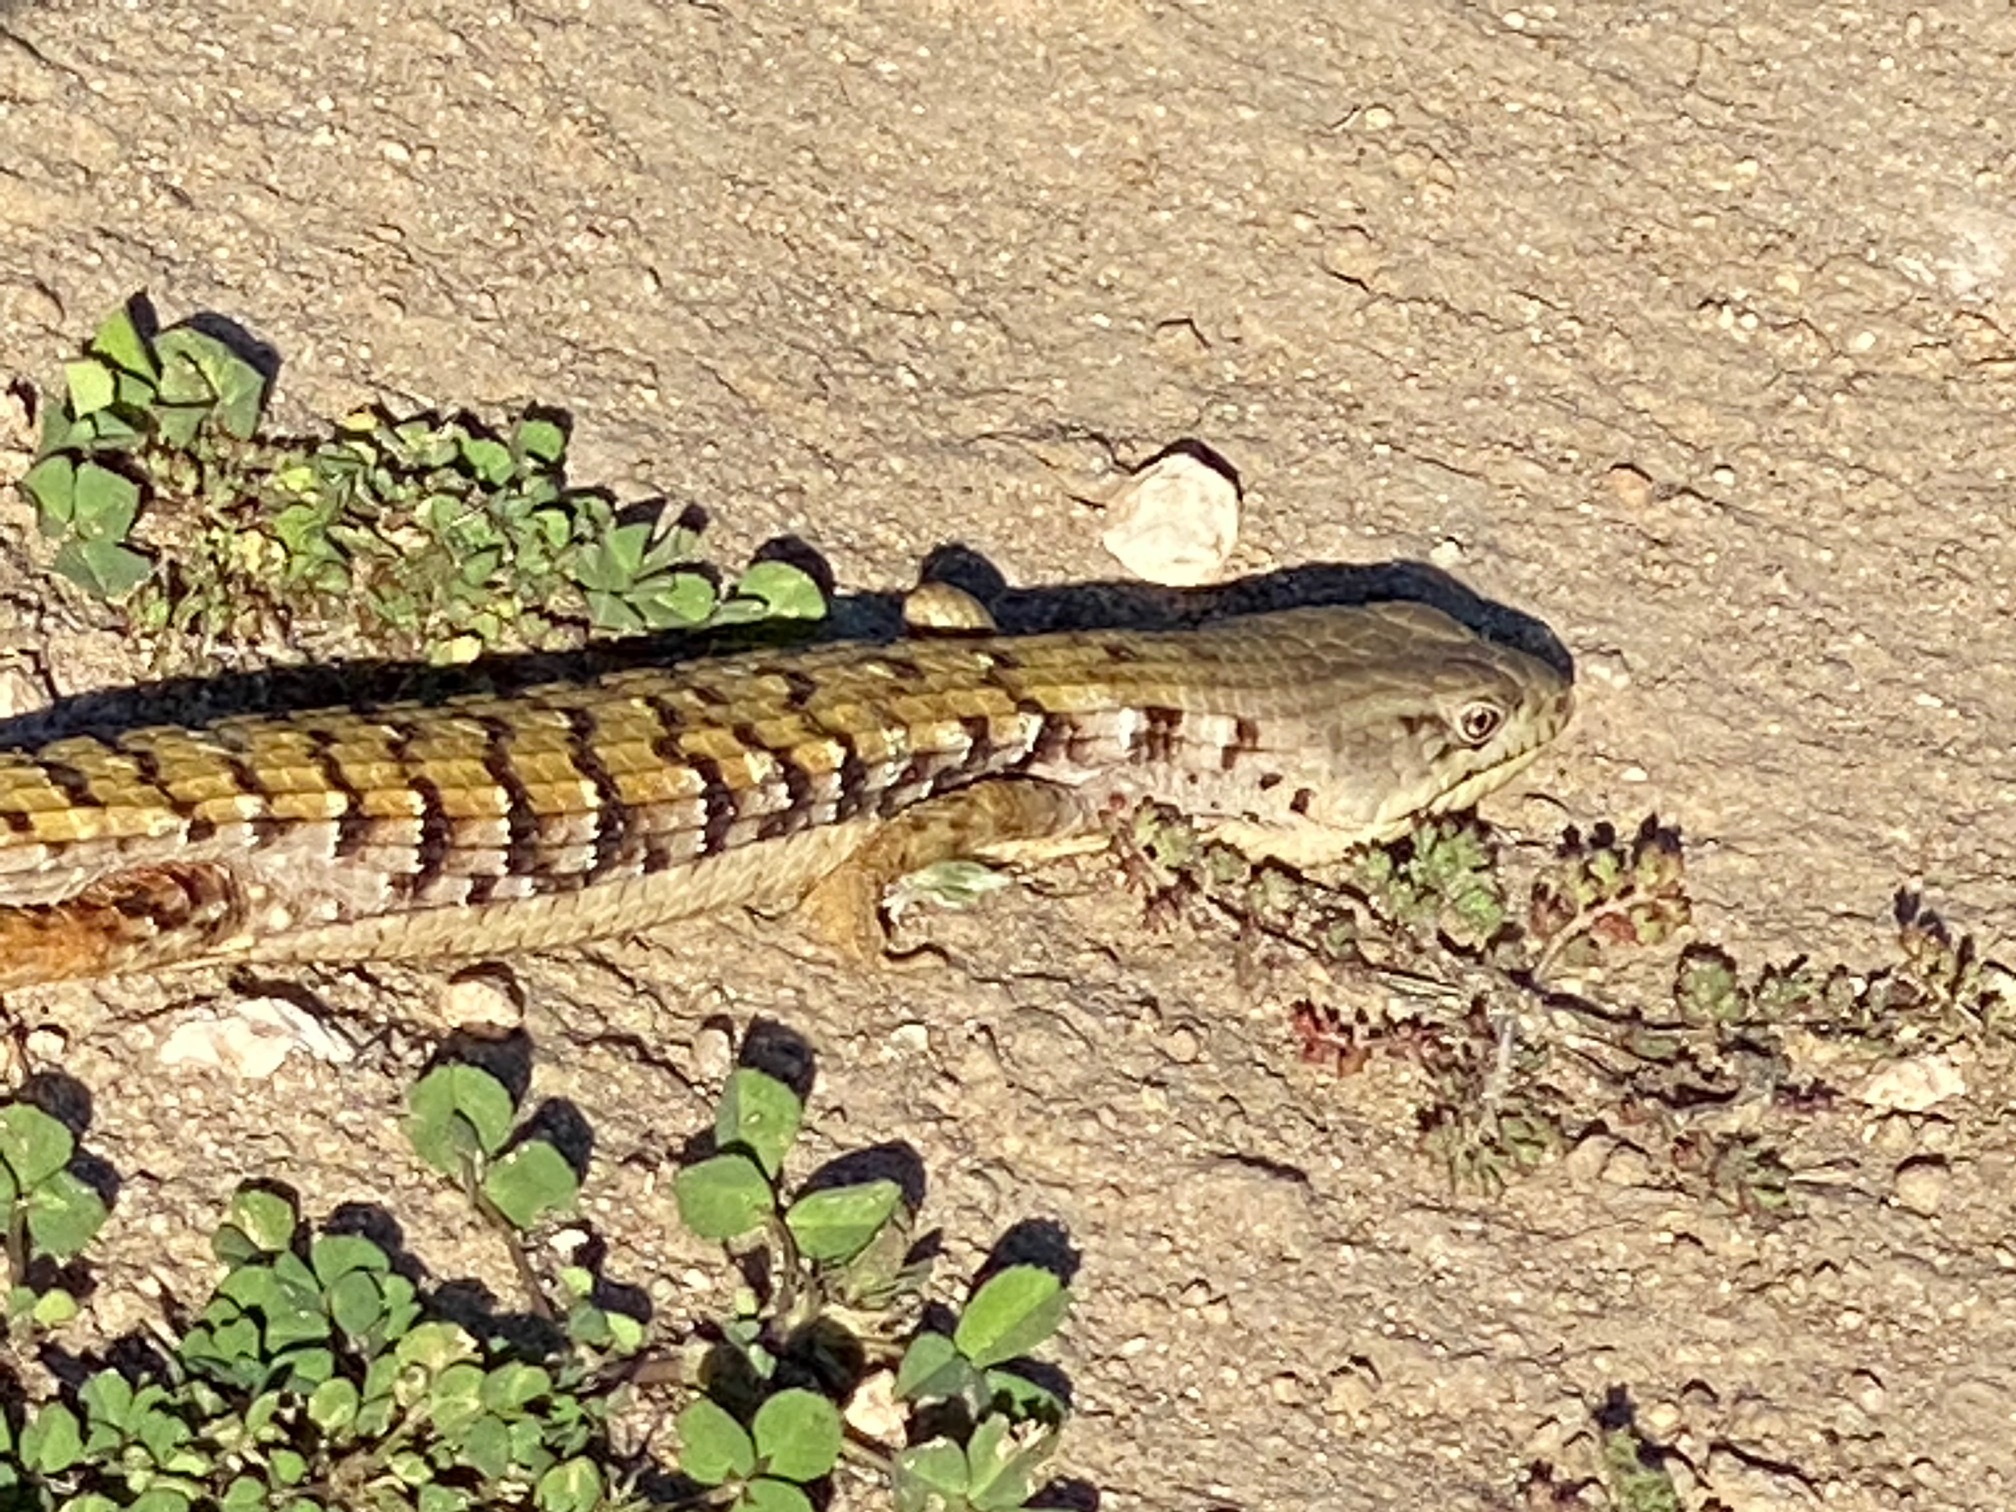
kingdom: Animalia
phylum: Chordata
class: Squamata
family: Anguidae
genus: Elgaria
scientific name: Elgaria multicarinata
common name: Southern alligator lizard
